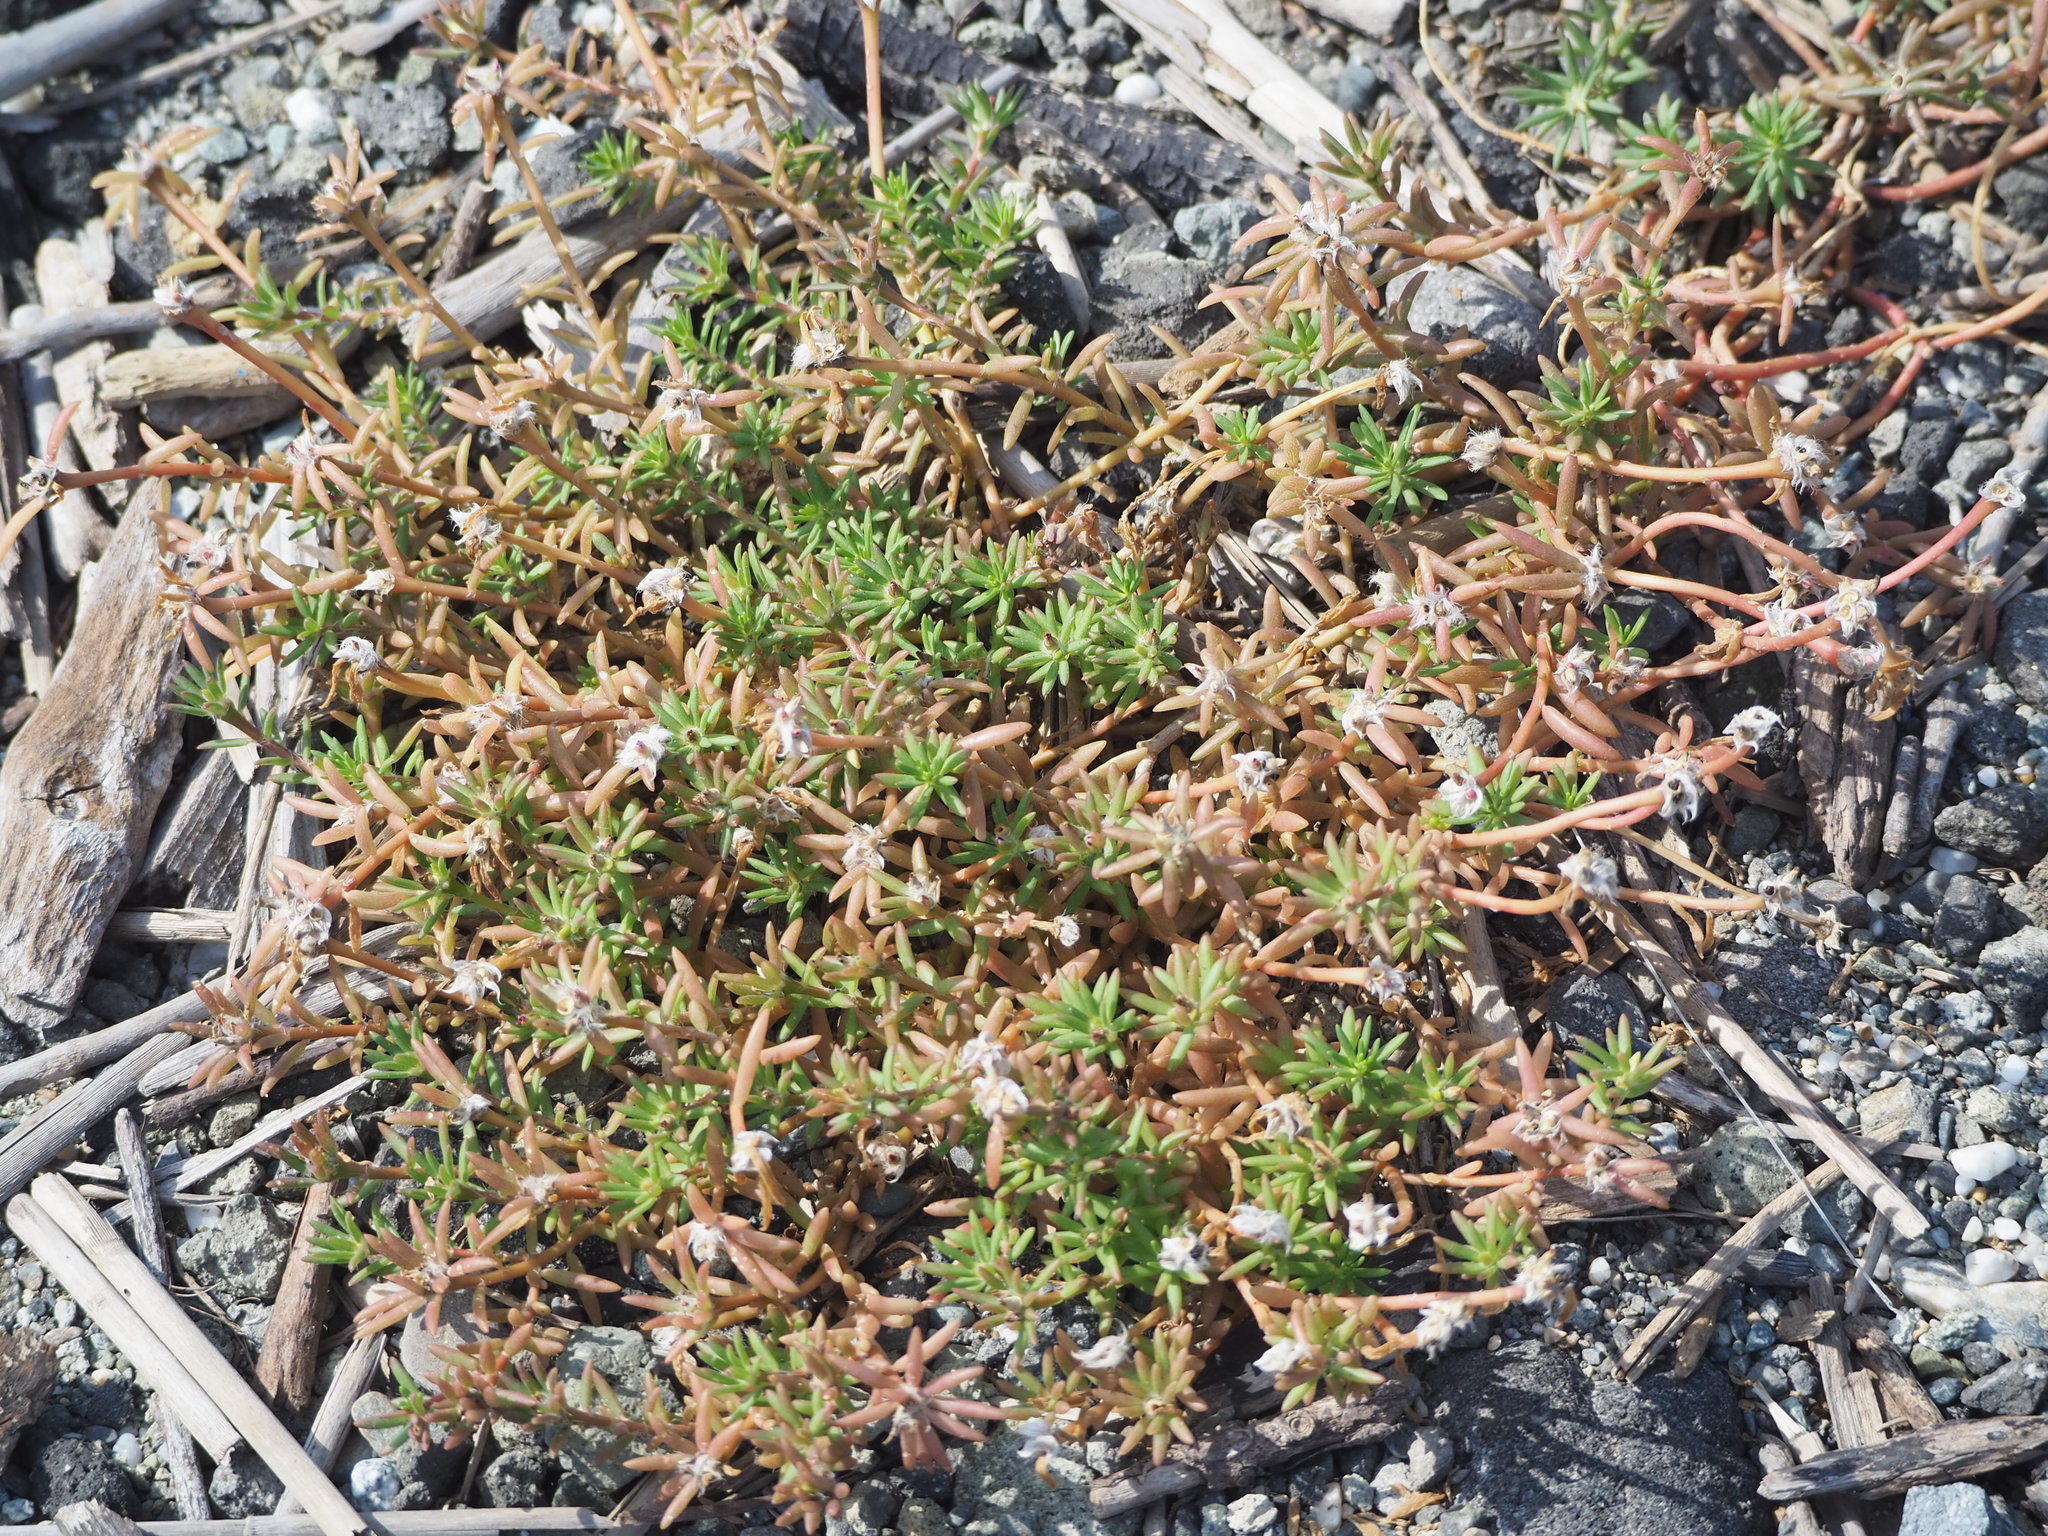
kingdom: Plantae
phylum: Tracheophyta
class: Magnoliopsida
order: Caryophyllales
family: Portulacaceae
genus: Portulaca
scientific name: Portulaca pilosa
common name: Kiss me quick
